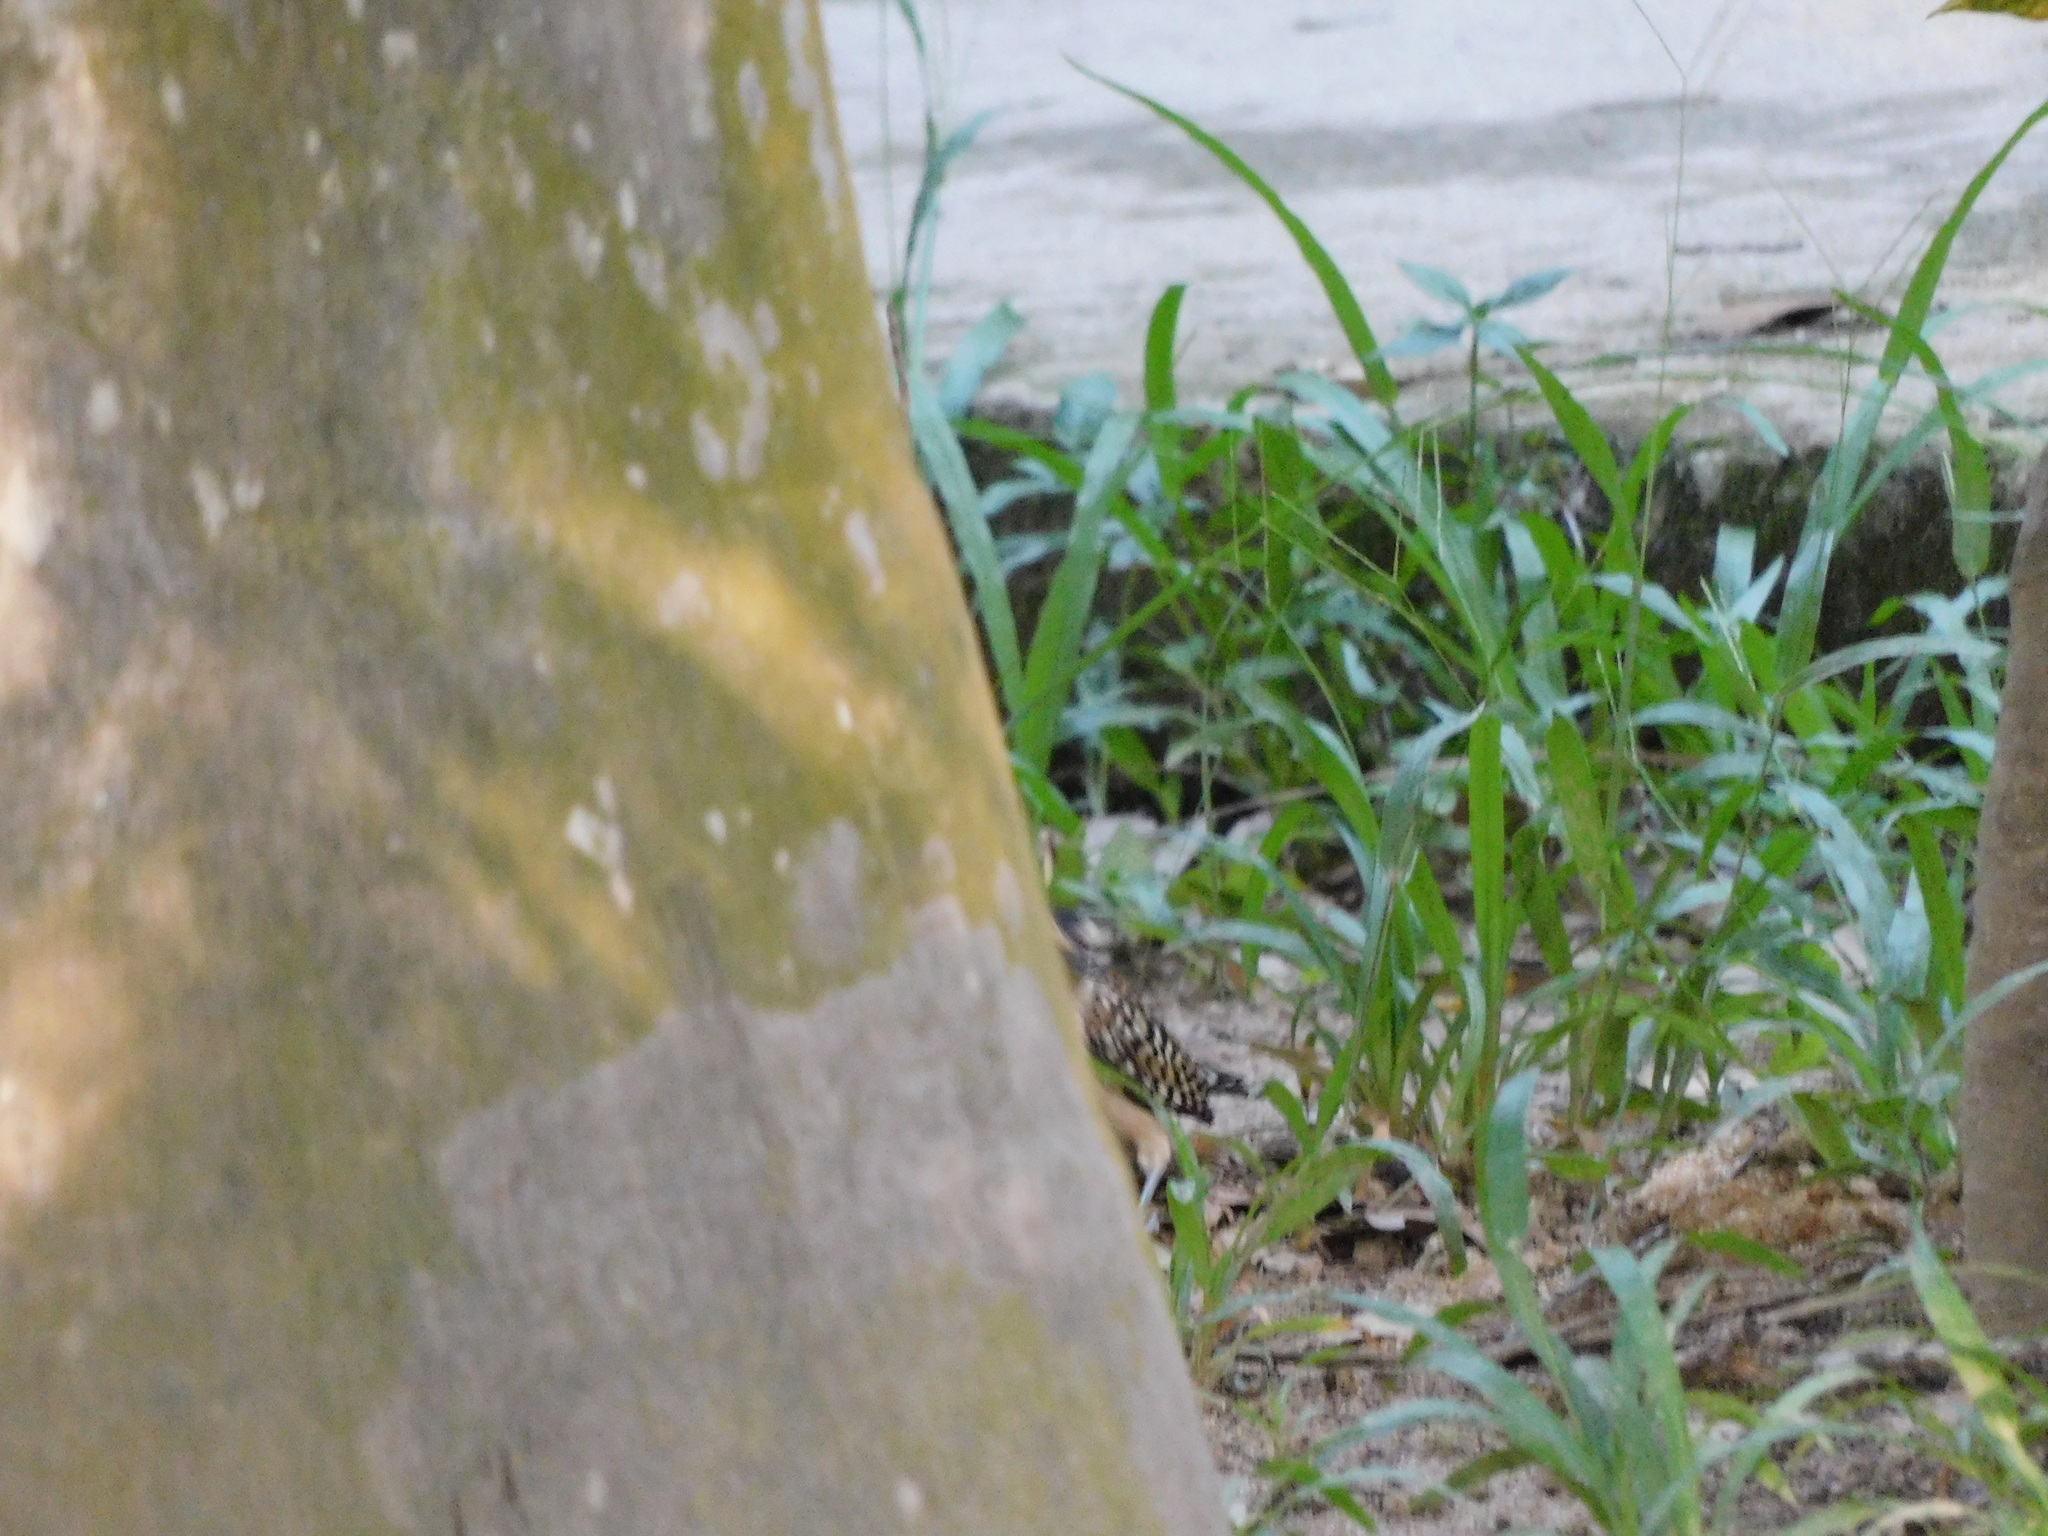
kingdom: Animalia
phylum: Chordata
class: Aves
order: Passeriformes
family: Troglodytidae
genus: Campylorhynchus
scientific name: Campylorhynchus rufinucha
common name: Rufous-naped wren
